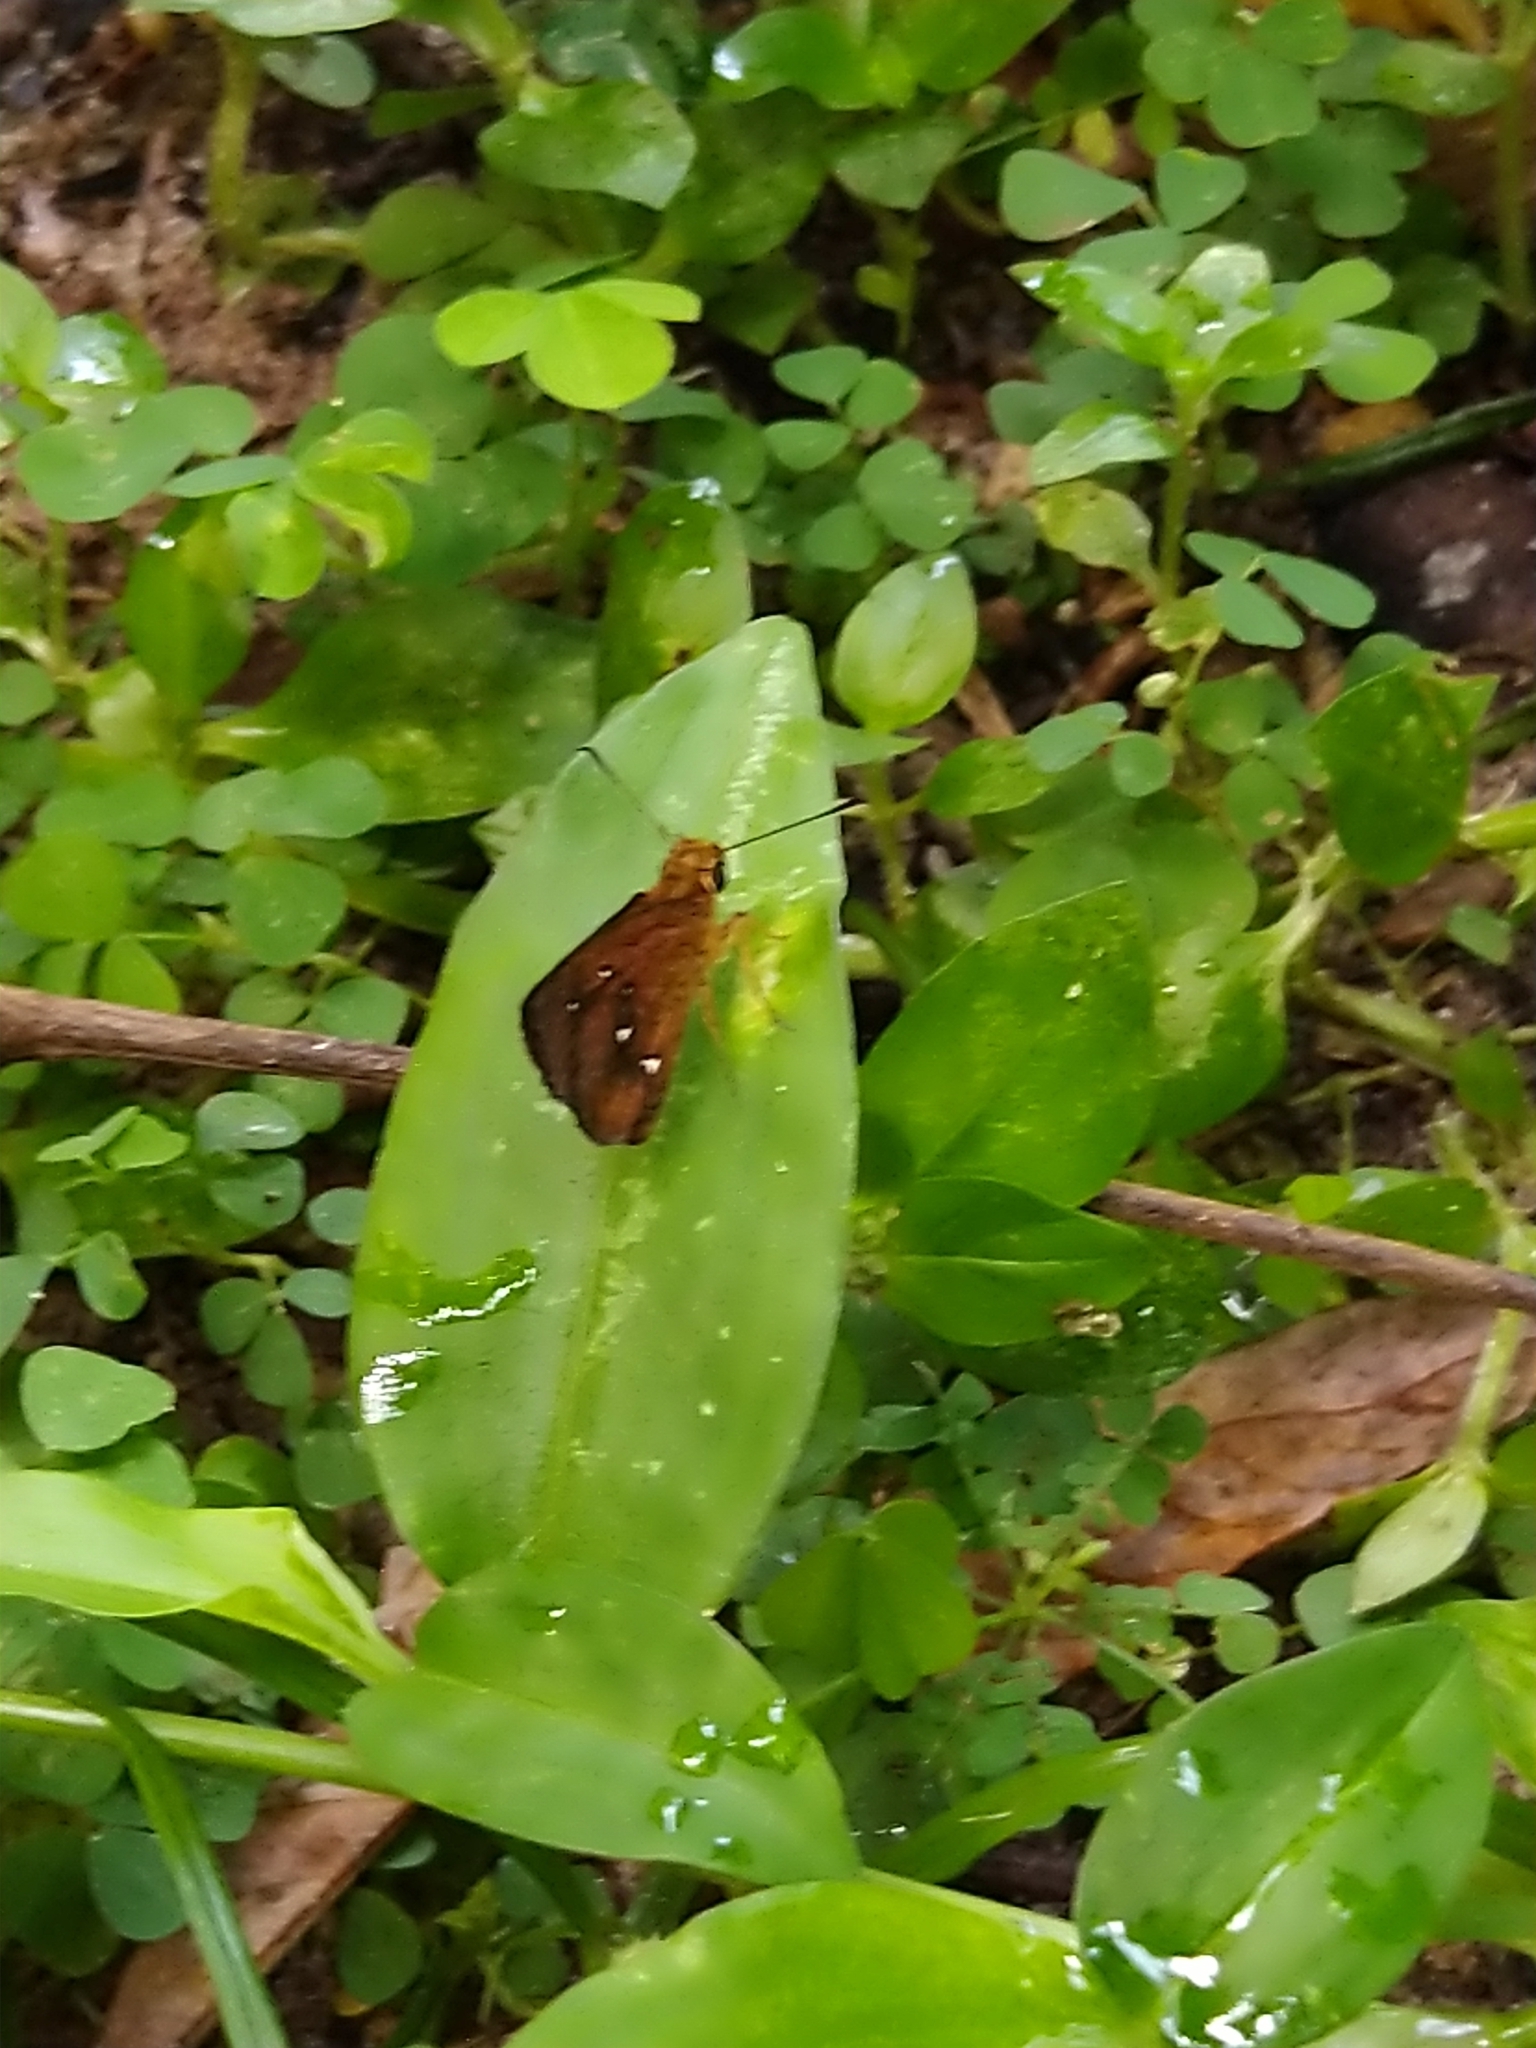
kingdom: Animalia
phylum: Arthropoda
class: Insecta
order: Lepidoptera
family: Hesperiidae
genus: Iambrix
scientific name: Iambrix salsala
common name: Chestnut bob
